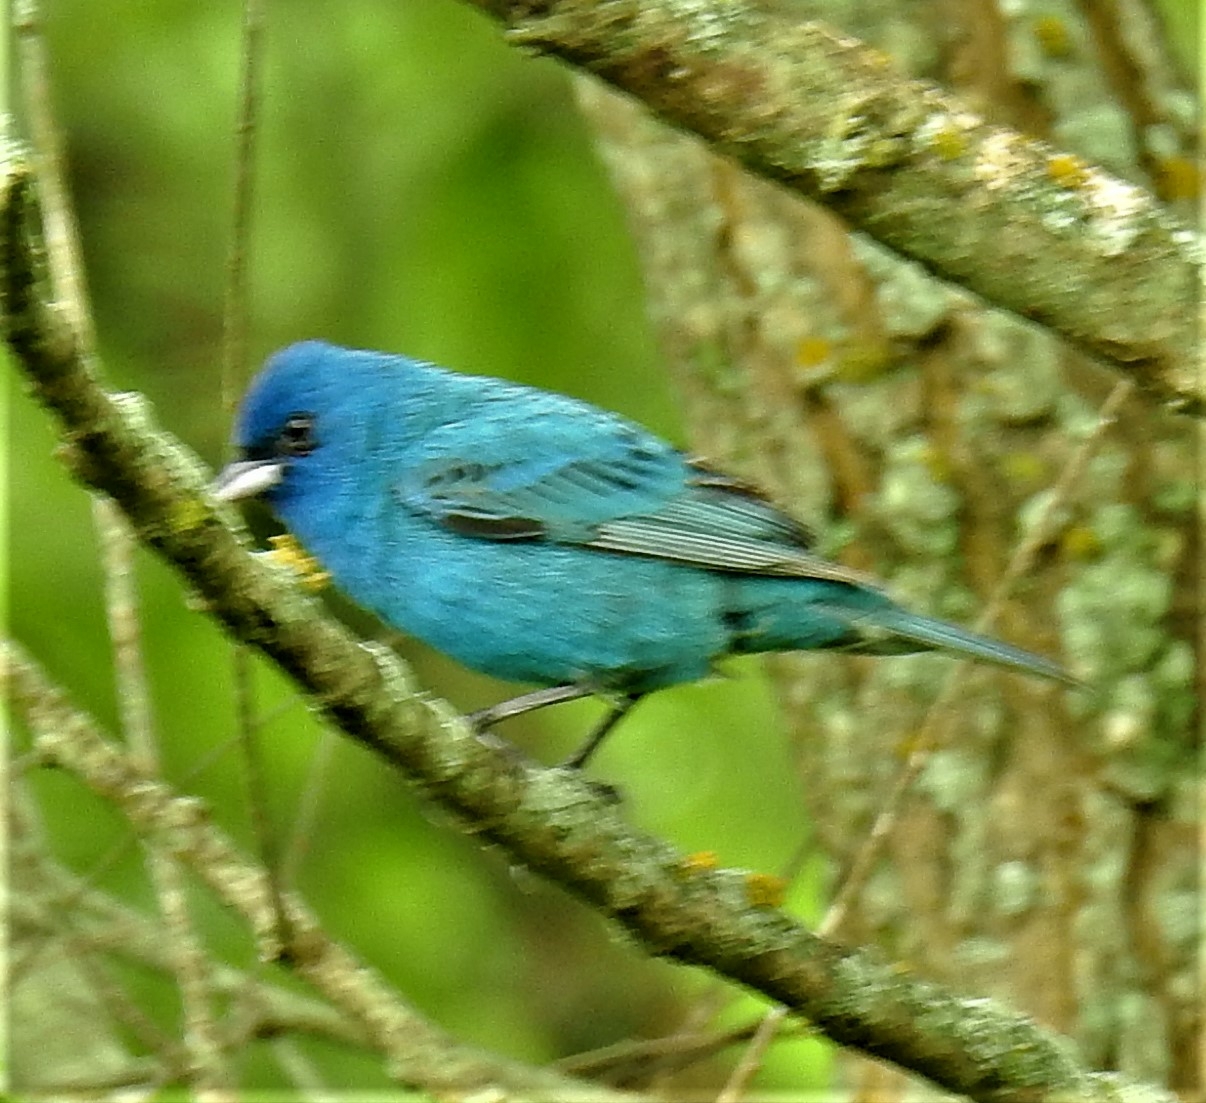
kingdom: Animalia
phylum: Chordata
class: Aves
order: Passeriformes
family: Cardinalidae
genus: Passerina
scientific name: Passerina cyanea
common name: Indigo bunting
